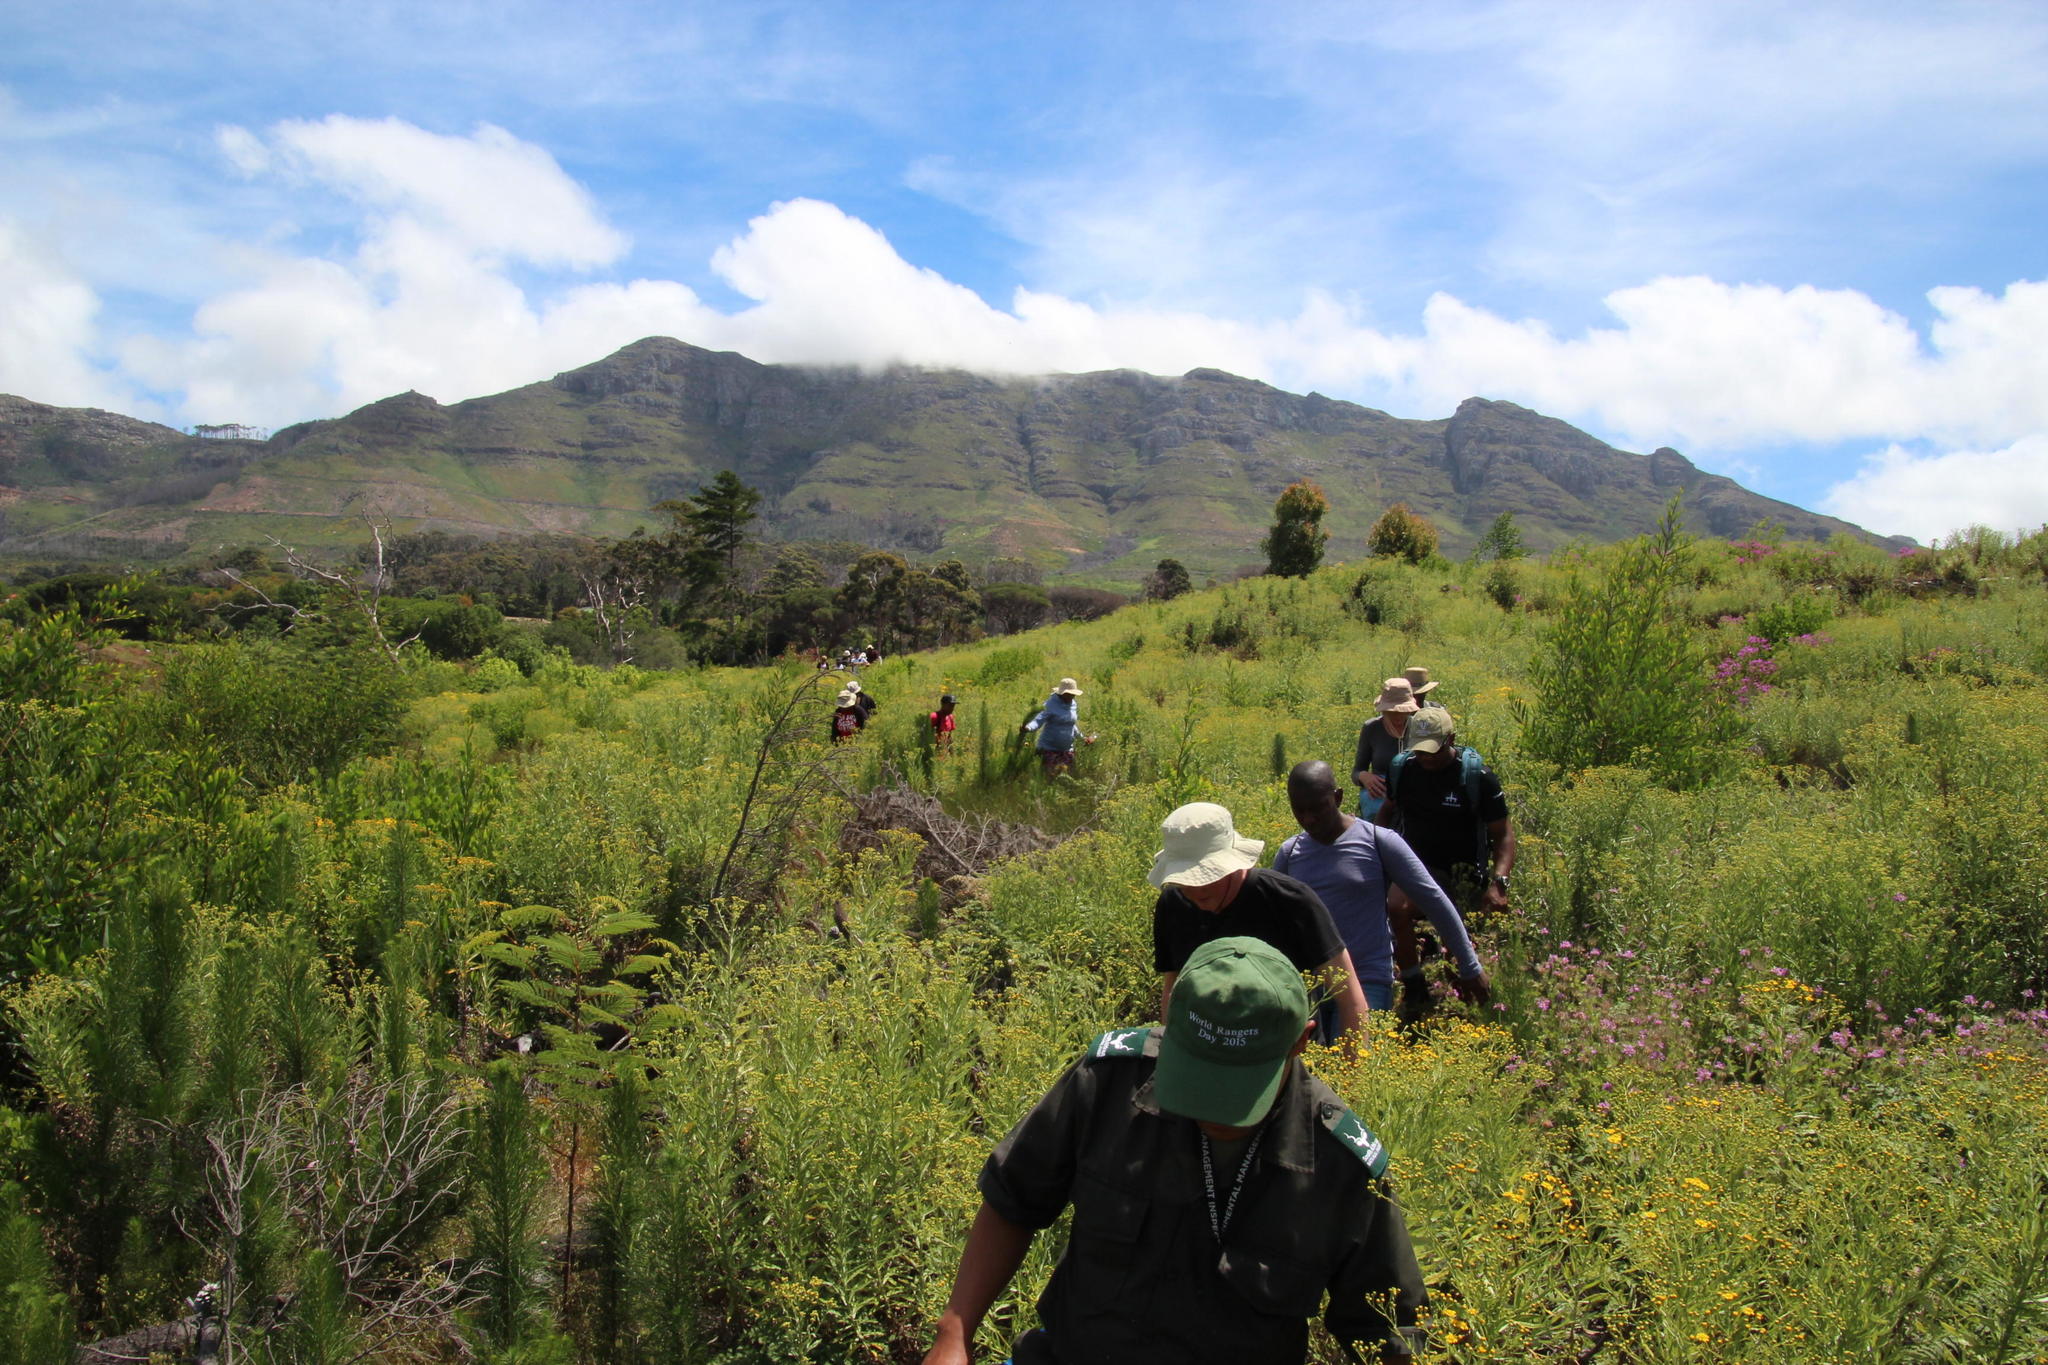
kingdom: Plantae
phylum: Tracheophyta
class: Magnoliopsida
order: Asterales
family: Asteraceae
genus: Senecio
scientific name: Senecio pterophorus
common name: Shoddy ragwort
